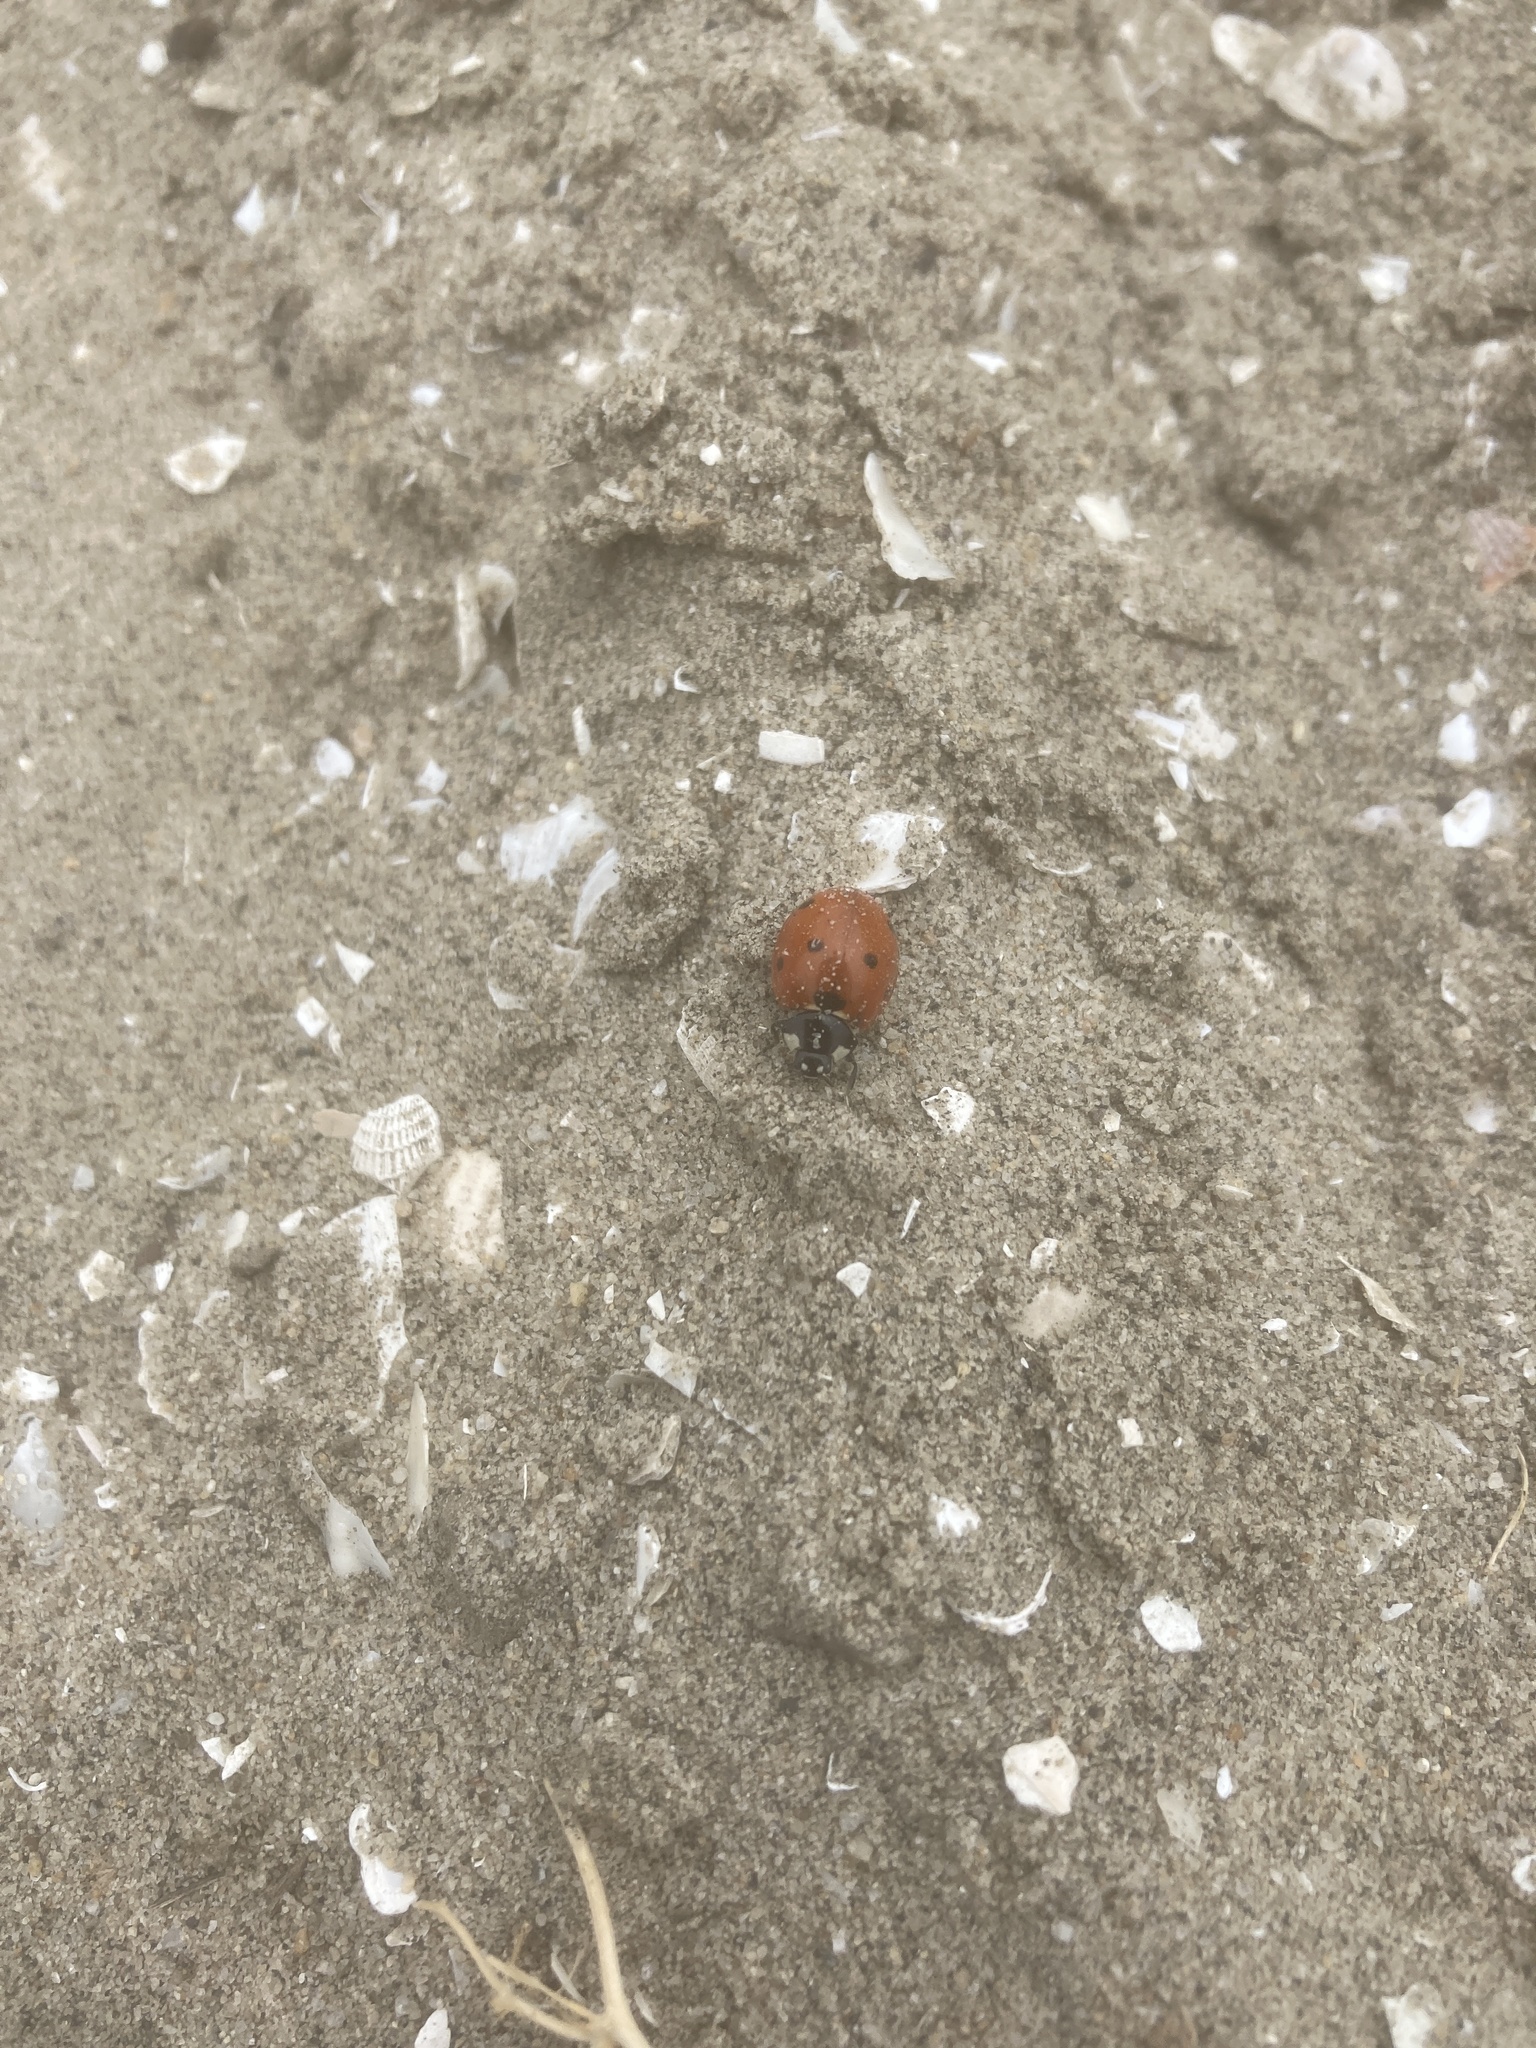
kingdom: Animalia
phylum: Arthropoda
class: Insecta
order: Coleoptera
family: Coccinellidae
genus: Coccinella
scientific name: Coccinella septempunctata
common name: Sevenspotted lady beetle
